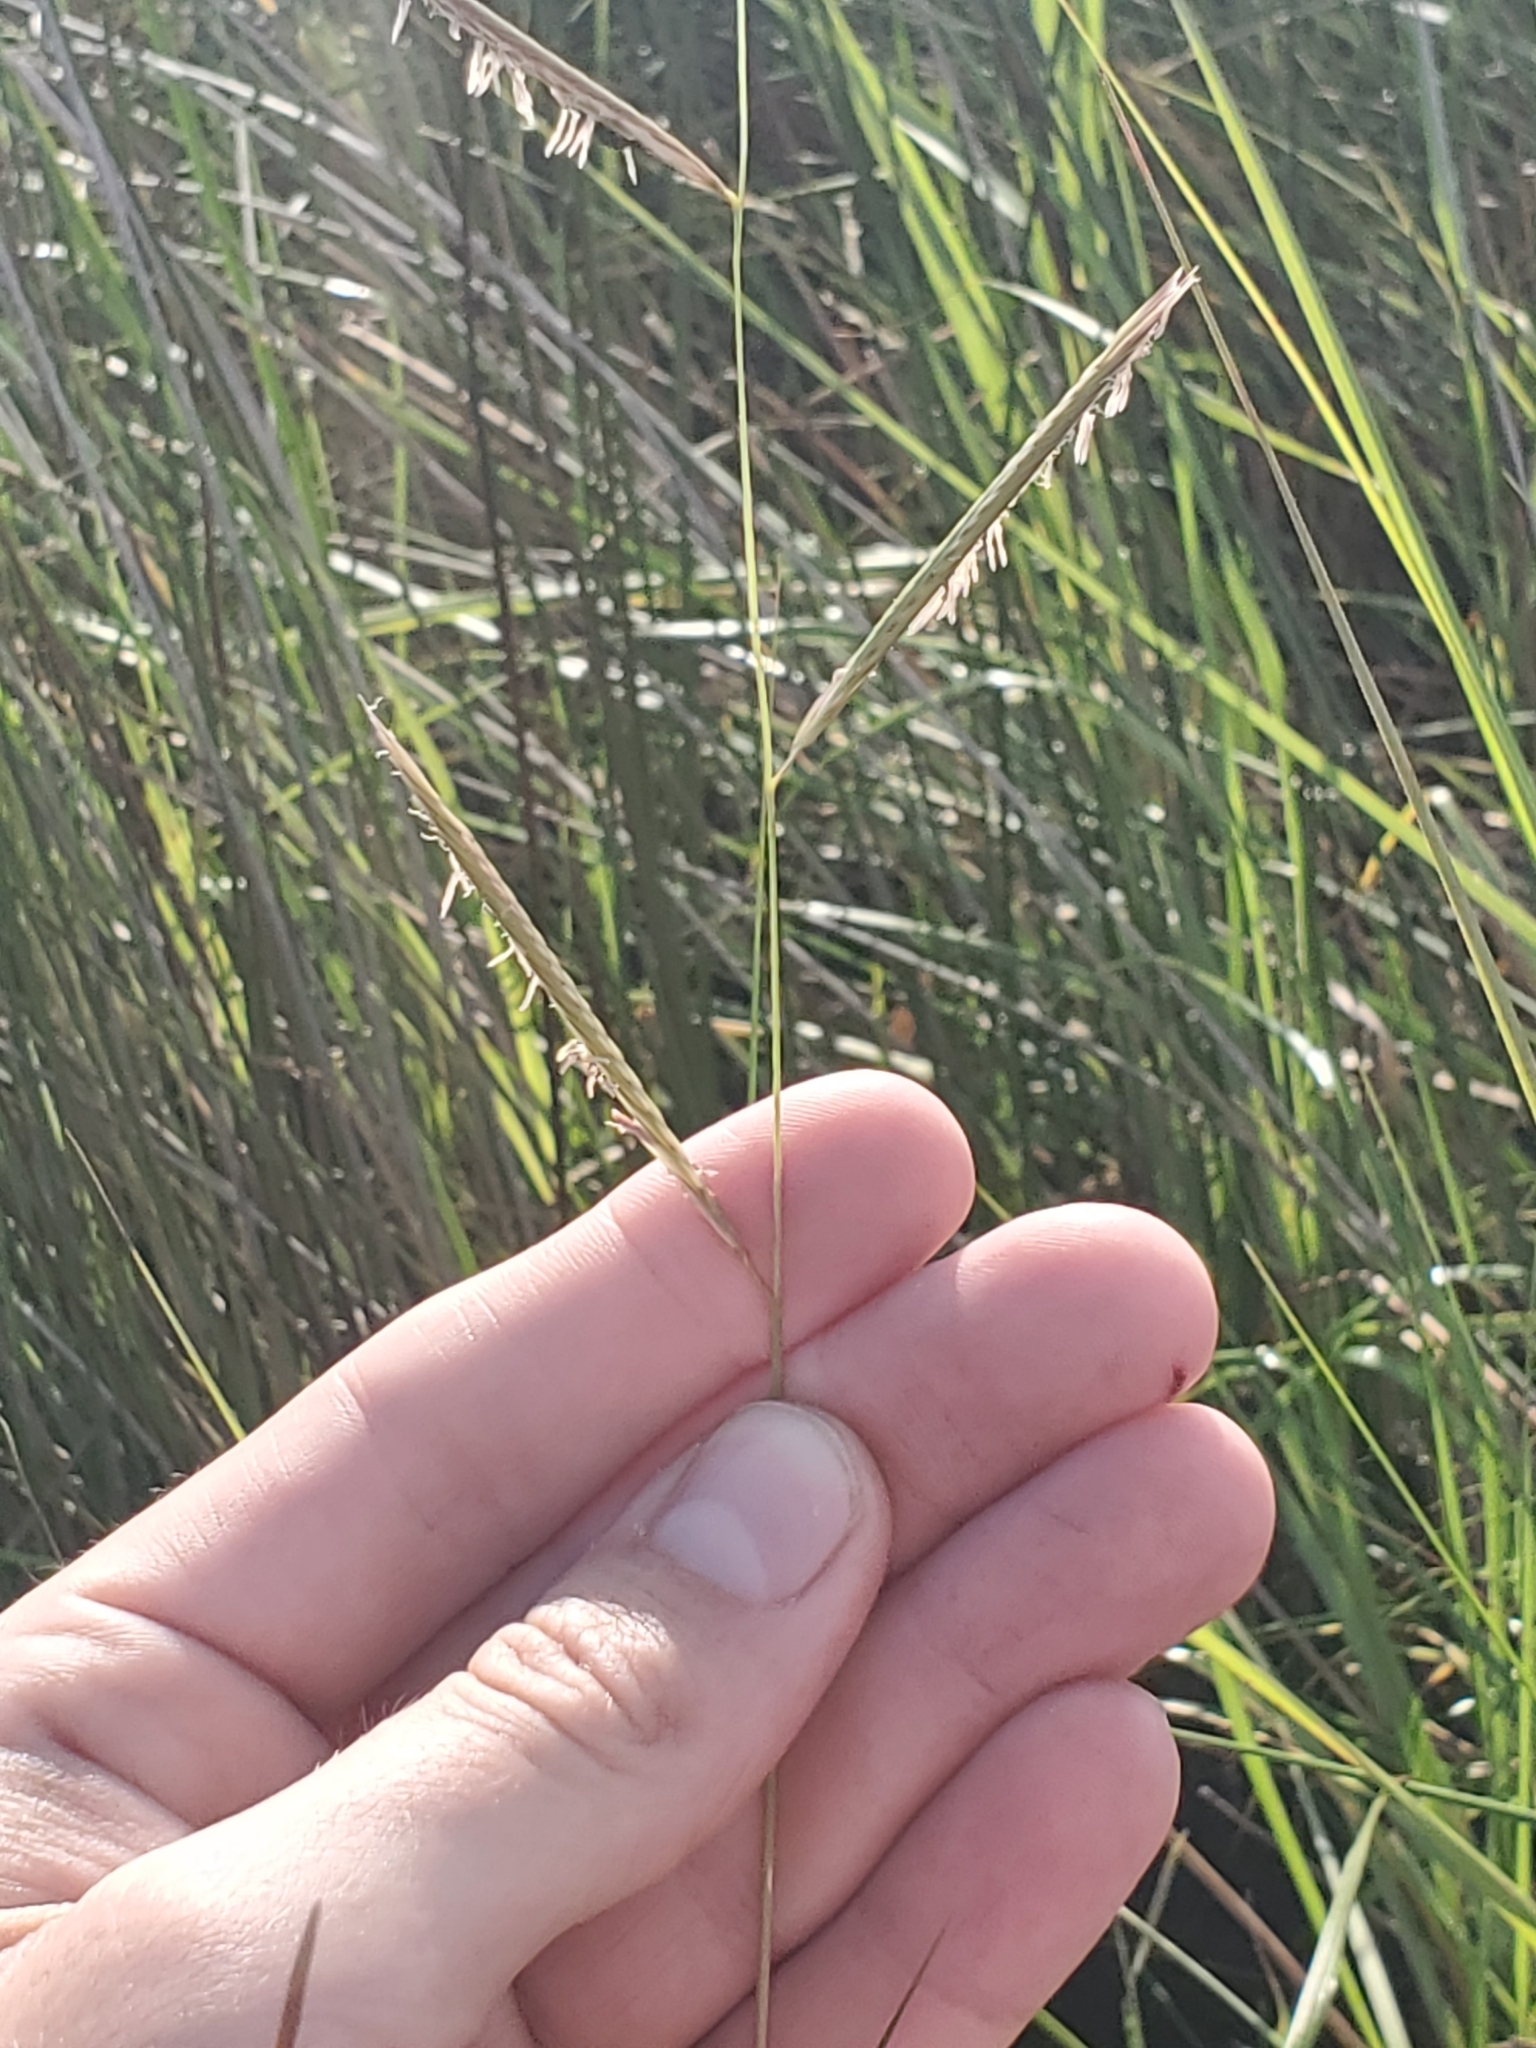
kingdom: Plantae
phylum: Tracheophyta
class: Liliopsida
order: Poales
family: Poaceae
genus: Sporobolus
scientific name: Sporobolus pumilus
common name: Highwater grass
